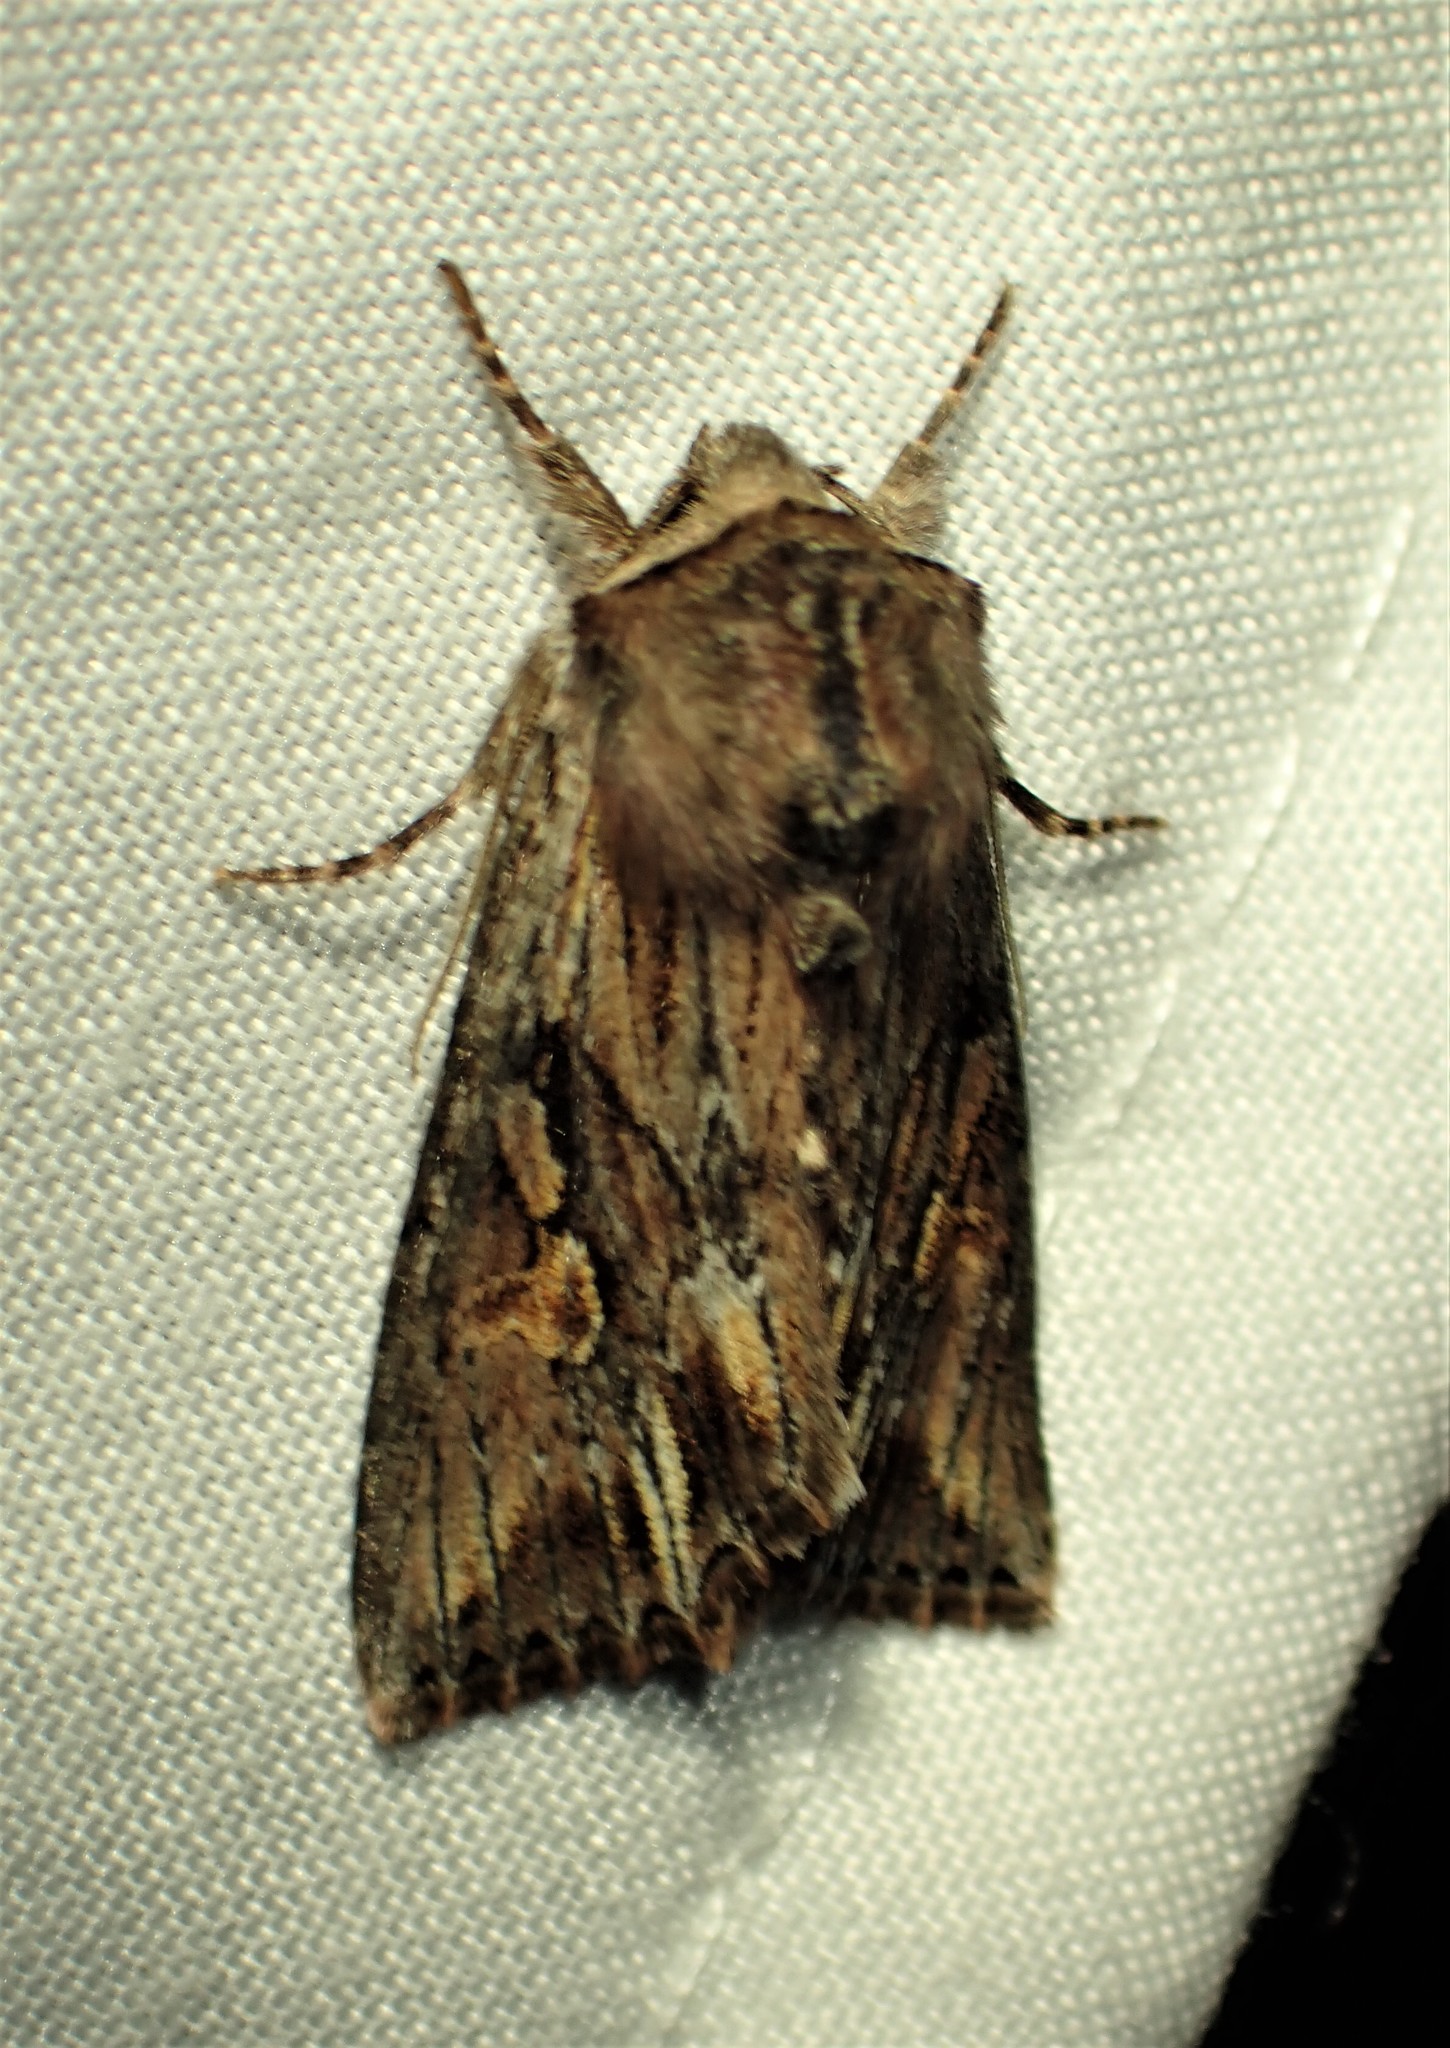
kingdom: Animalia
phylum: Arthropoda
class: Insecta
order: Lepidoptera
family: Noctuidae
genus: Achatia
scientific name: Achatia evicta
